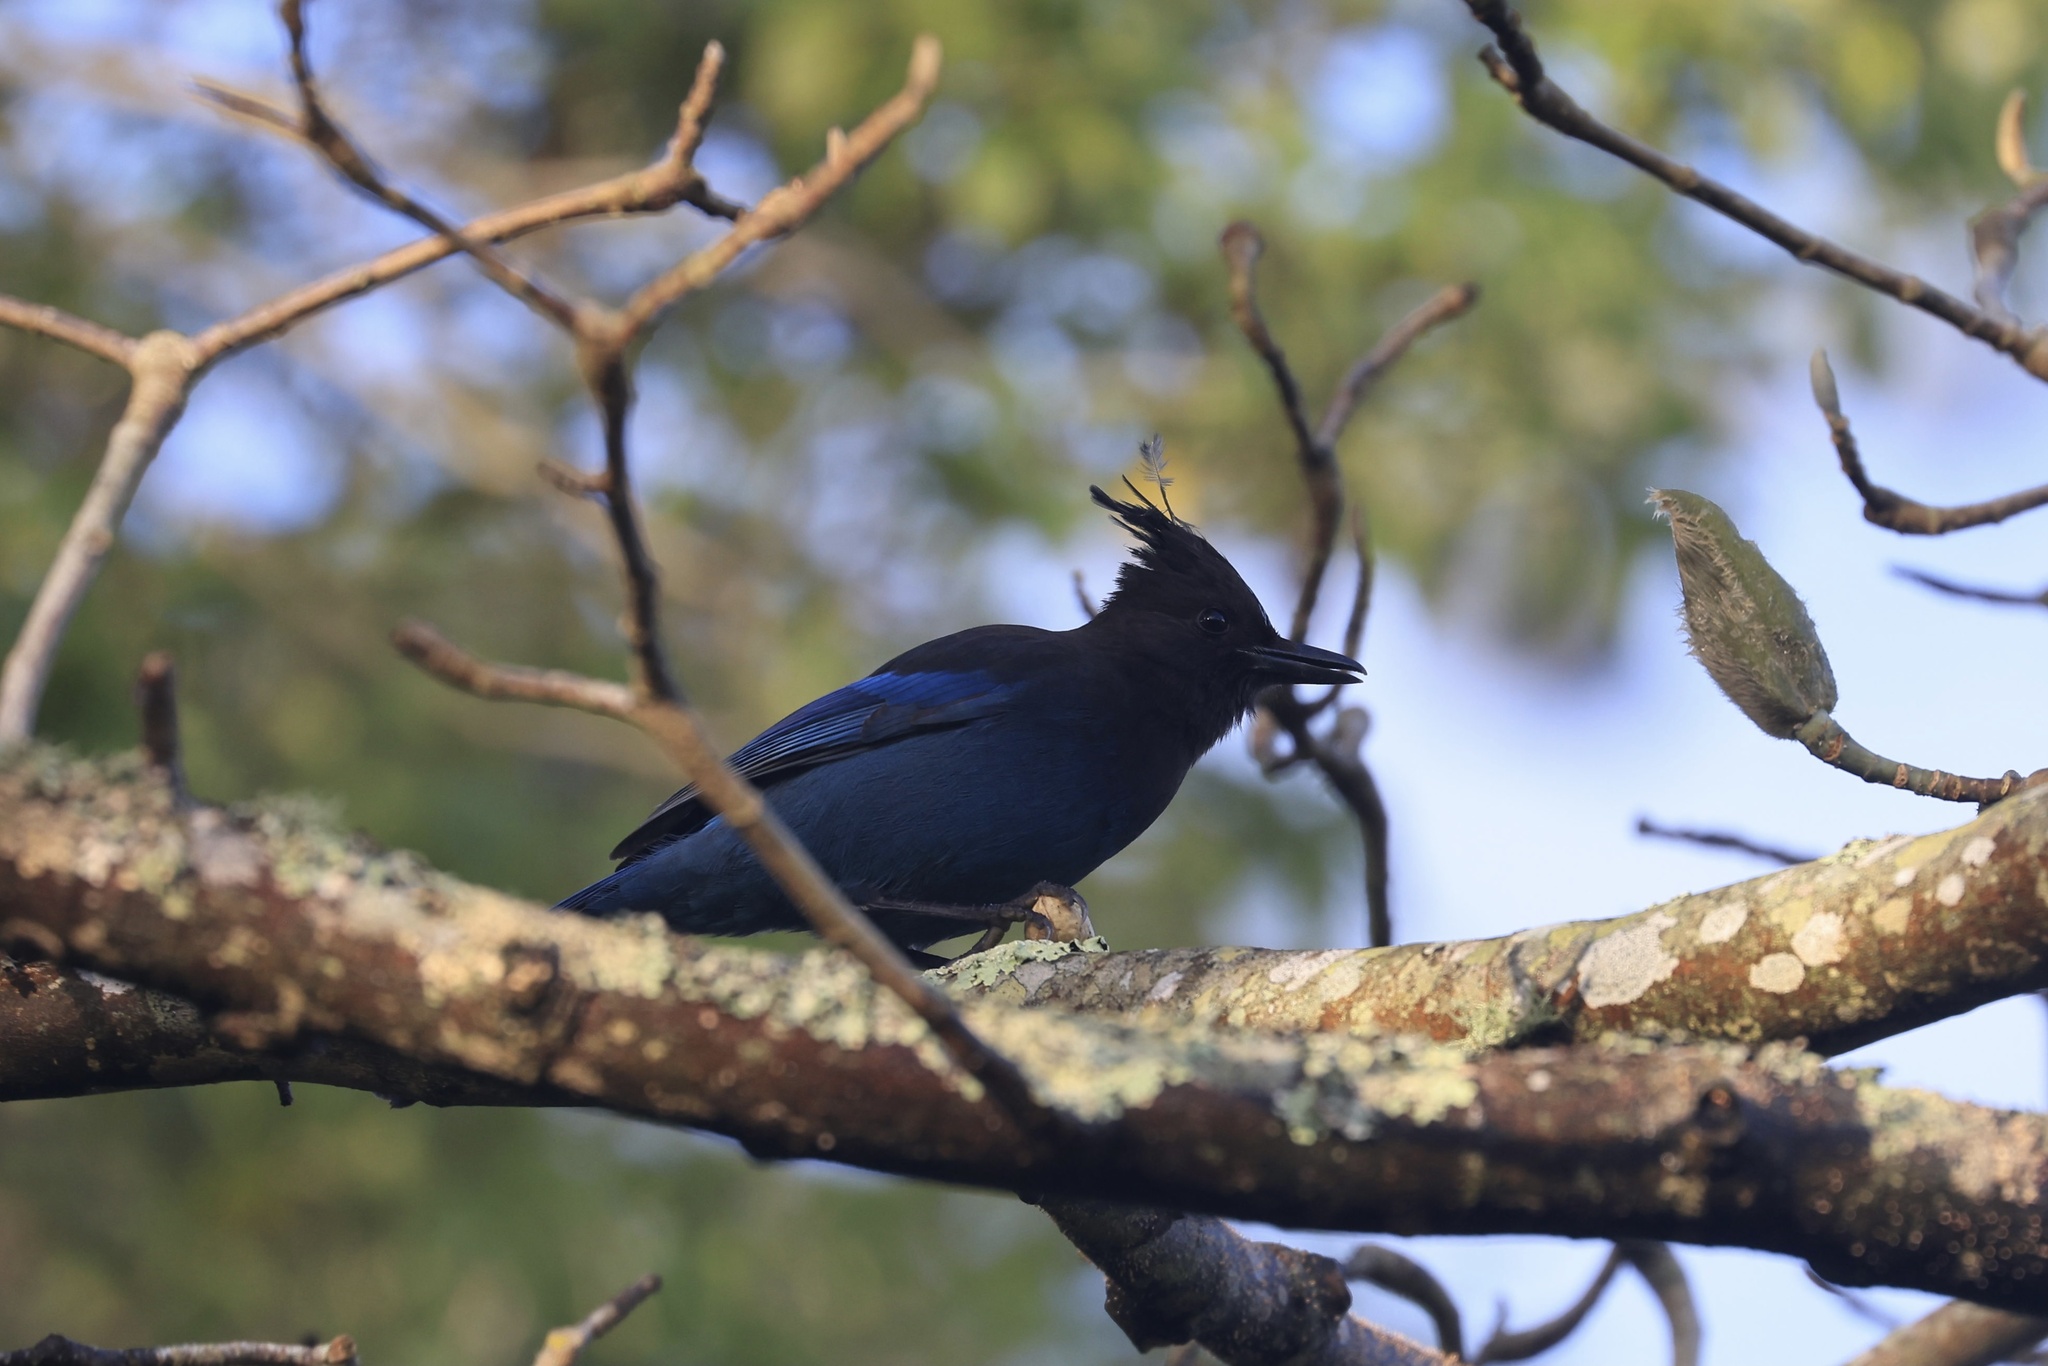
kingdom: Animalia
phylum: Chordata
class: Aves
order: Passeriformes
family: Corvidae
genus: Cyanocitta
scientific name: Cyanocitta stelleri
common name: Steller's jay
